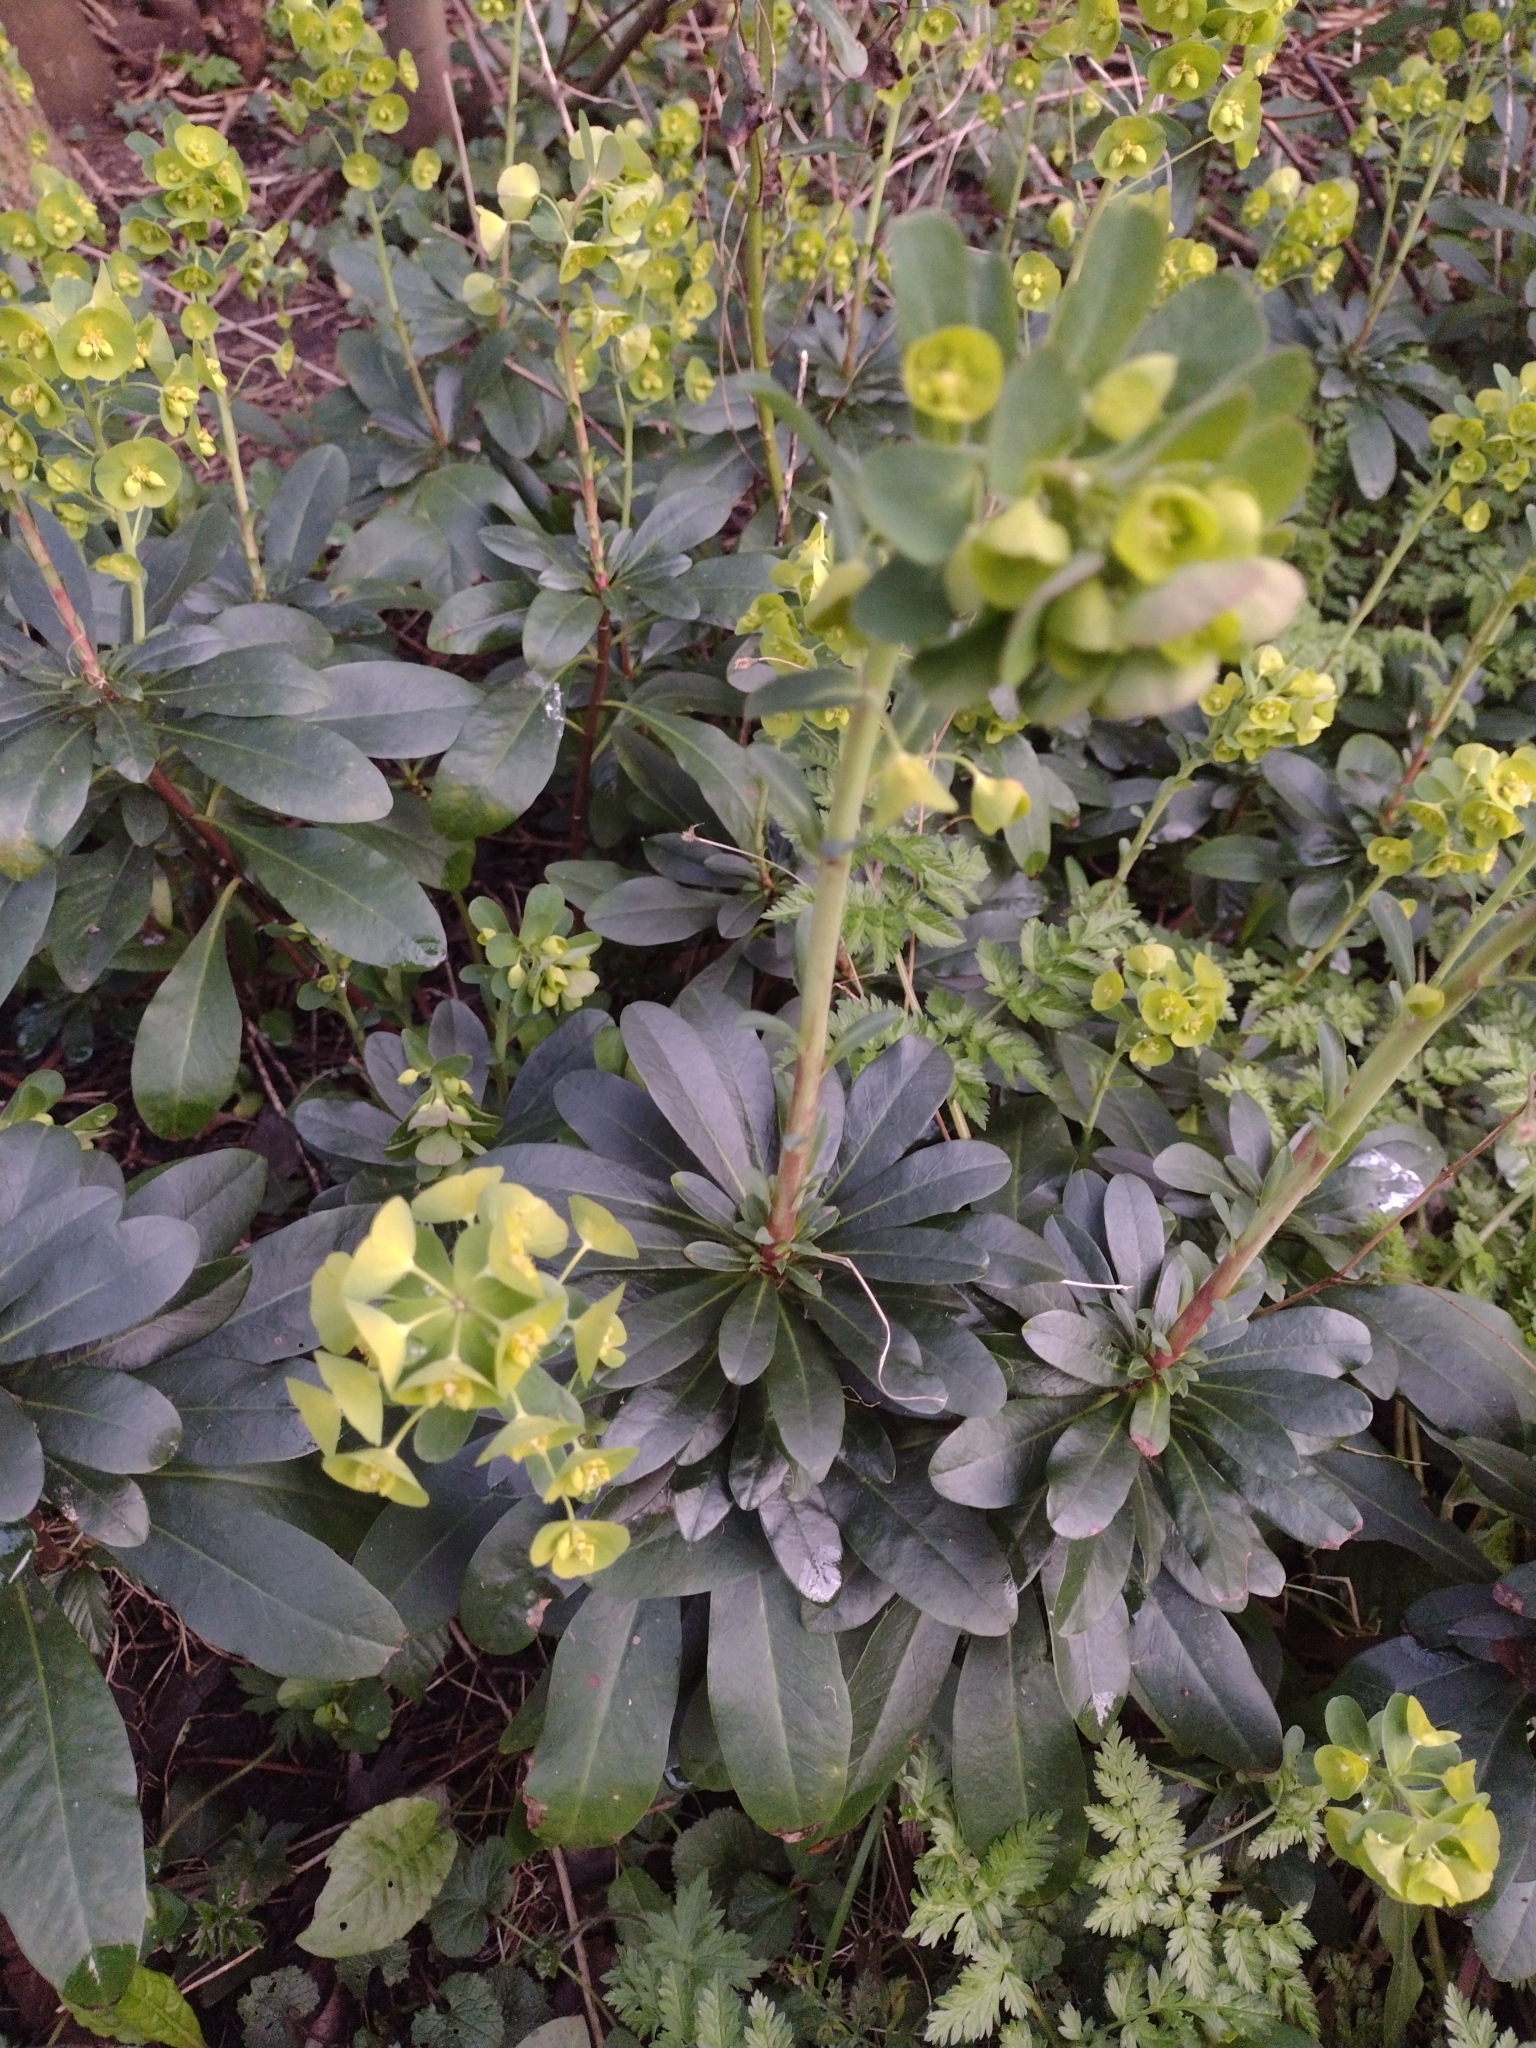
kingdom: Plantae
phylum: Tracheophyta
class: Magnoliopsida
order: Malpighiales
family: Euphorbiaceae
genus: Euphorbia
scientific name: Euphorbia amygdaloides
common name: Wood spurge
